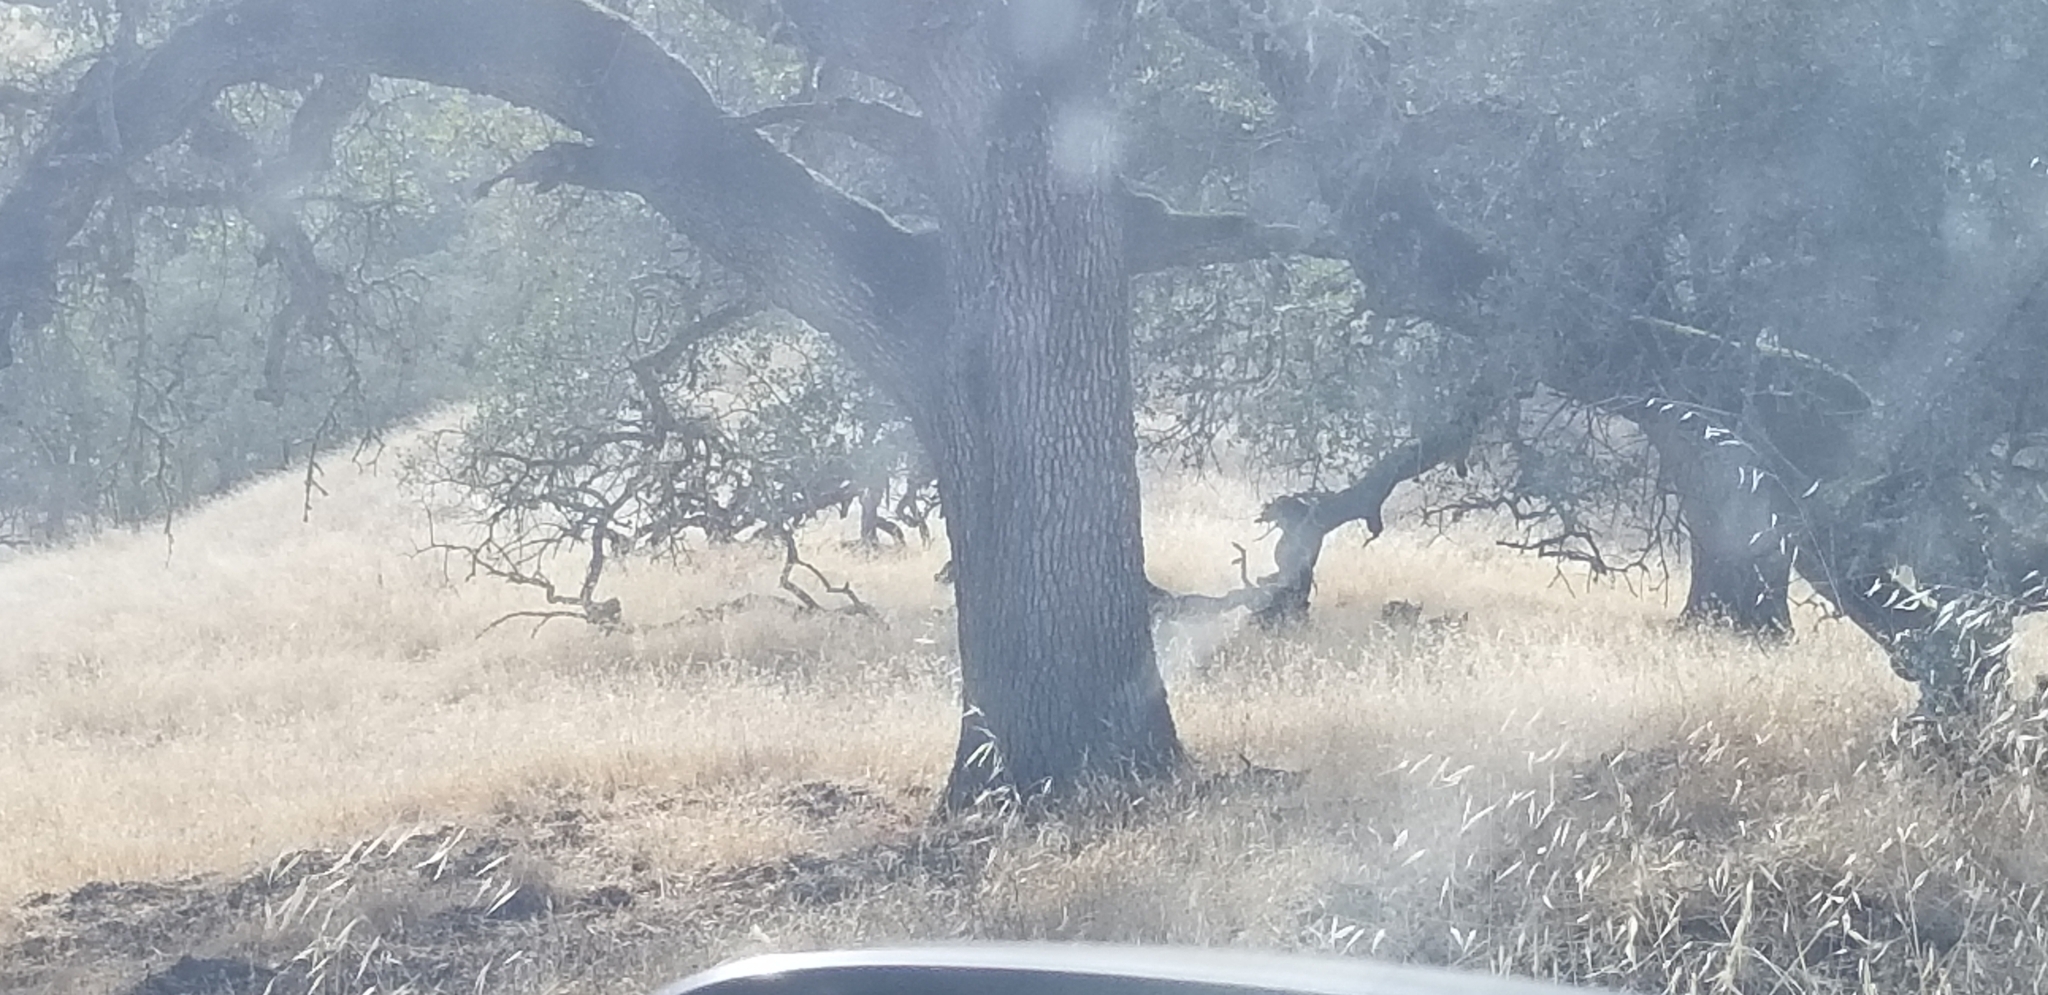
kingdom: Animalia
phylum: Chordata
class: Mammalia
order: Artiodactyla
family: Suidae
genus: Sus
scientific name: Sus scrofa
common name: Wild boar
